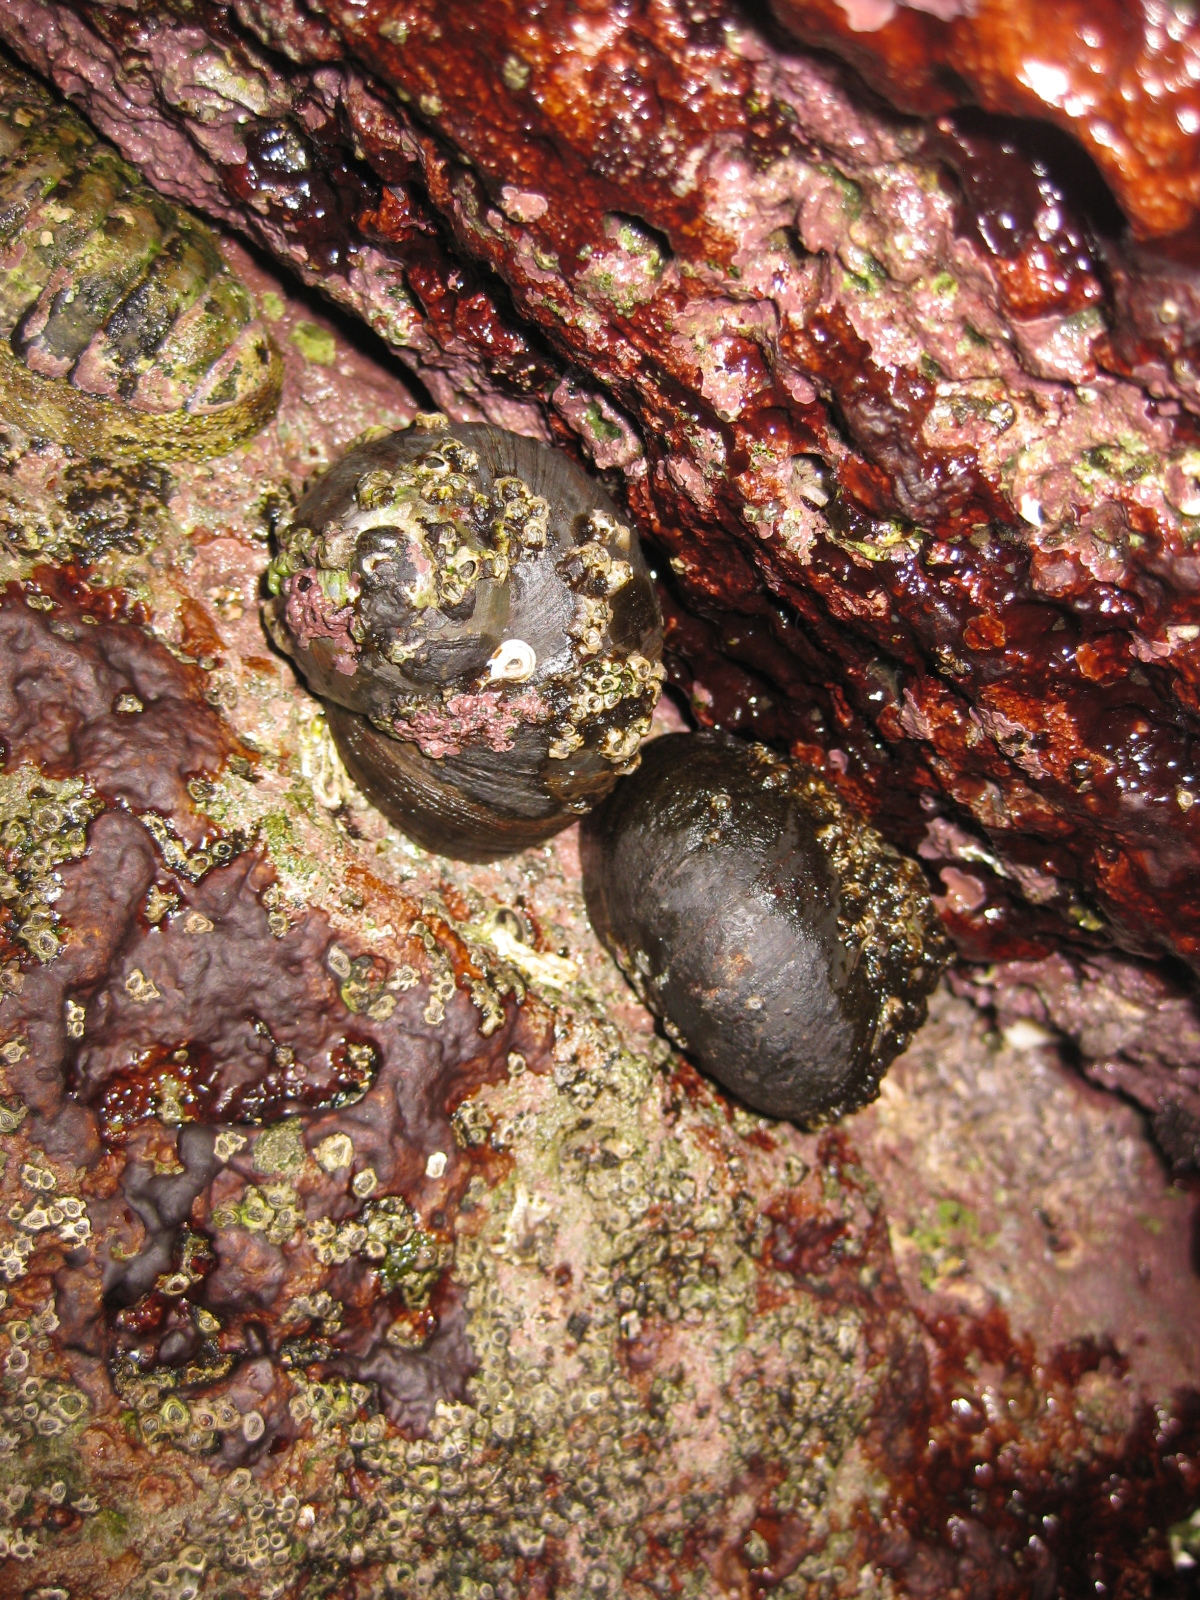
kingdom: Animalia
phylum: Mollusca
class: Gastropoda
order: Trochida
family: Turbinidae
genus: Lunella
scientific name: Lunella smaragda
